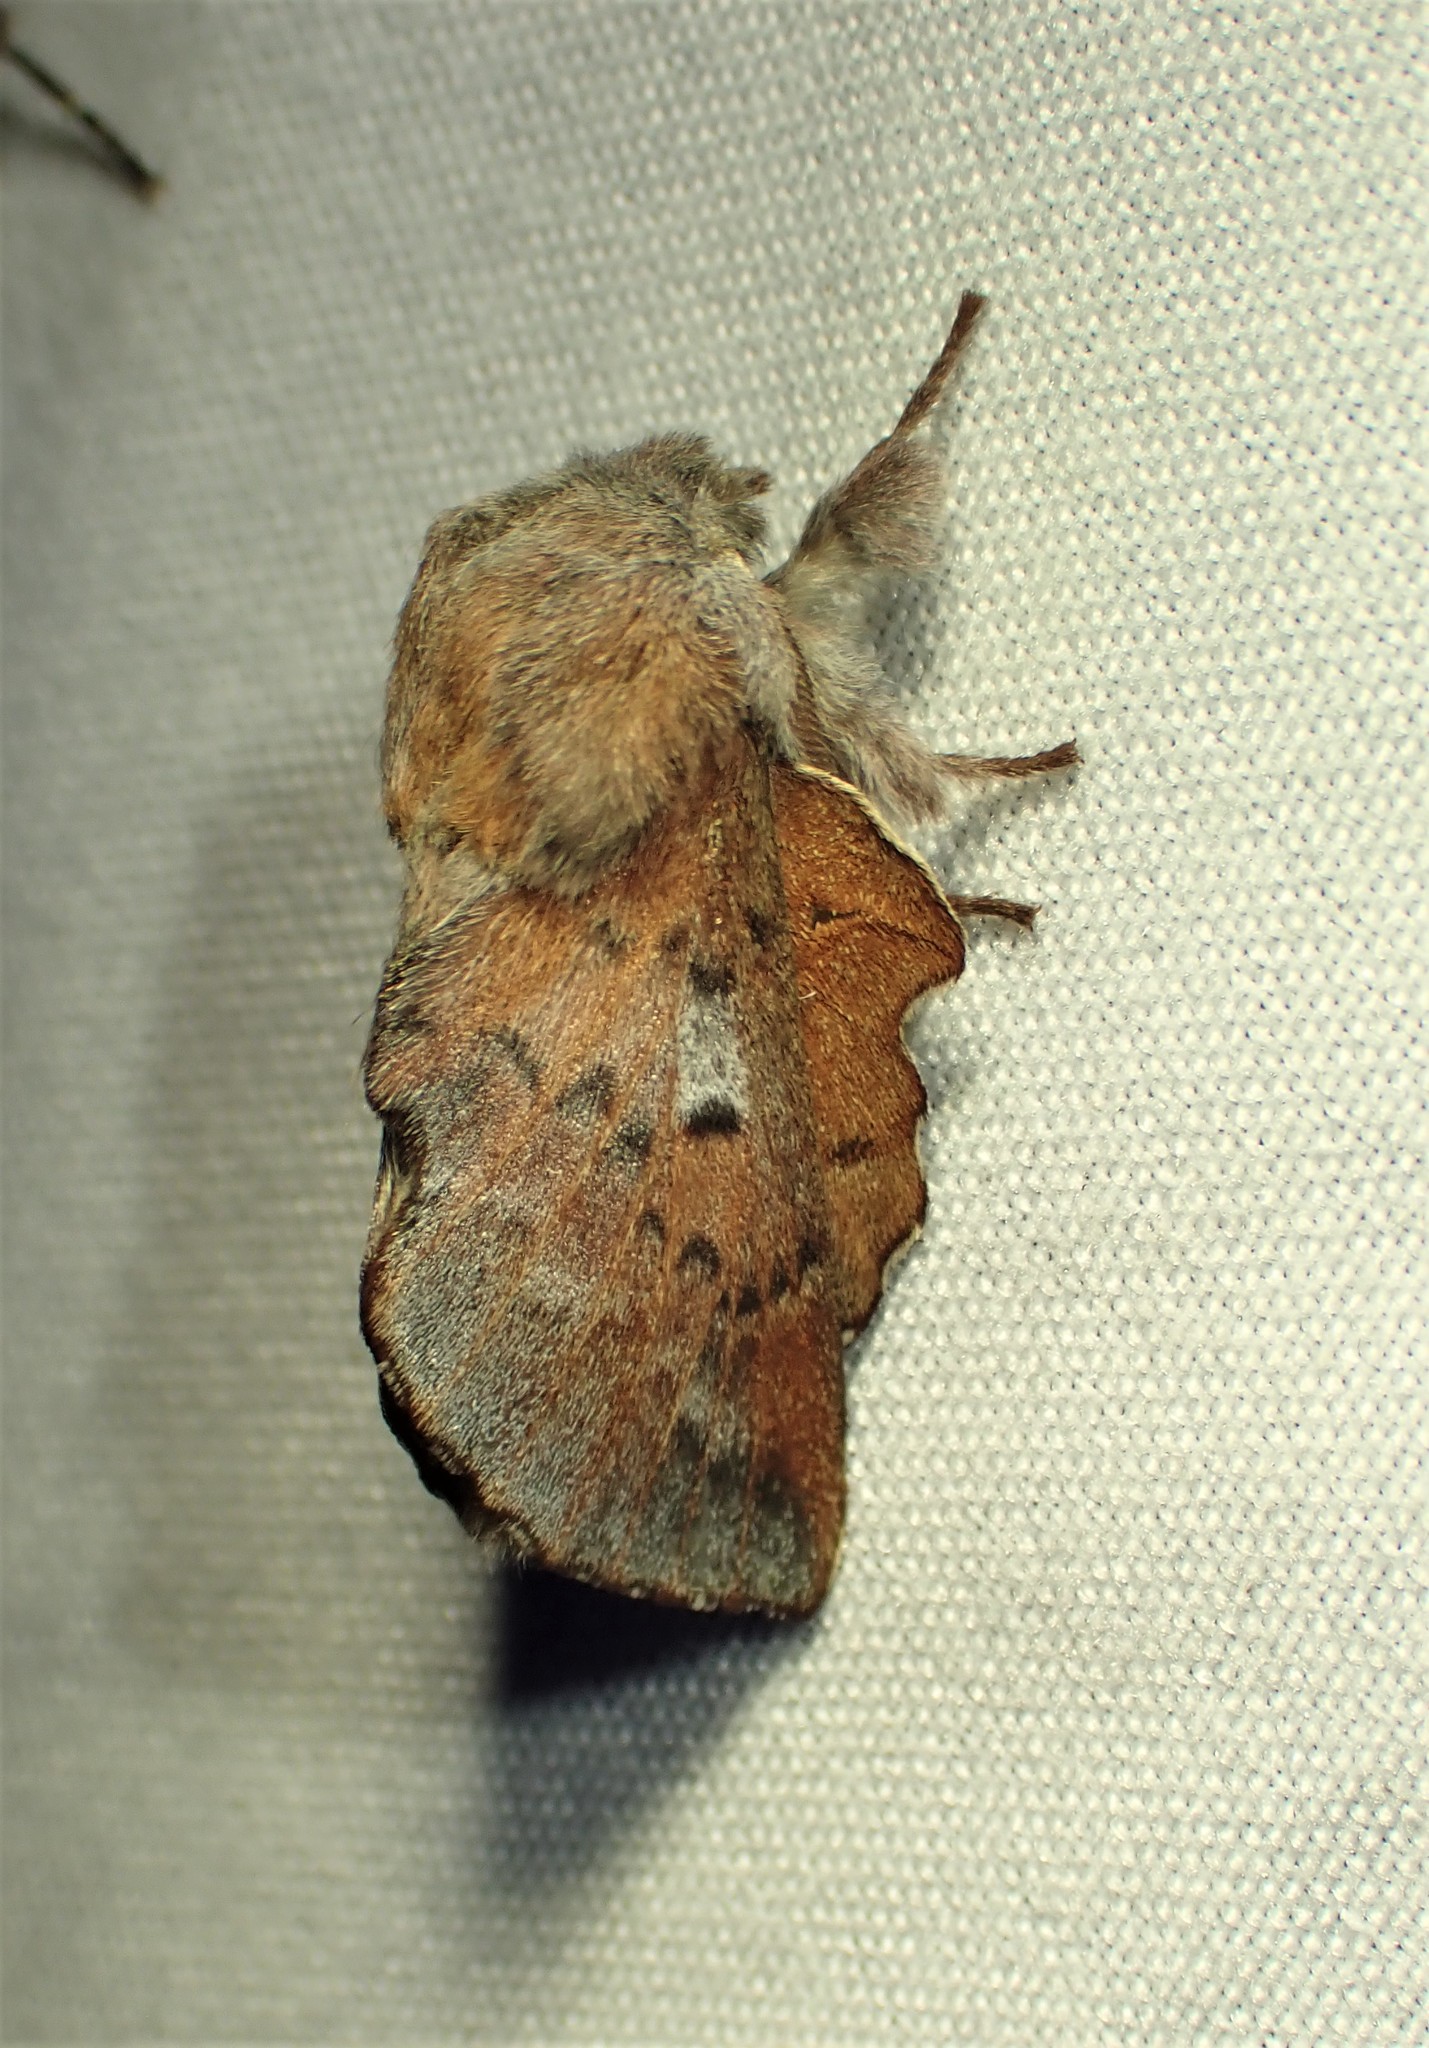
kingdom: Animalia
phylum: Arthropoda
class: Insecta
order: Lepidoptera
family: Lasiocampidae
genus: Phyllodesma
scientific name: Phyllodesma americana
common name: American lappet moth
